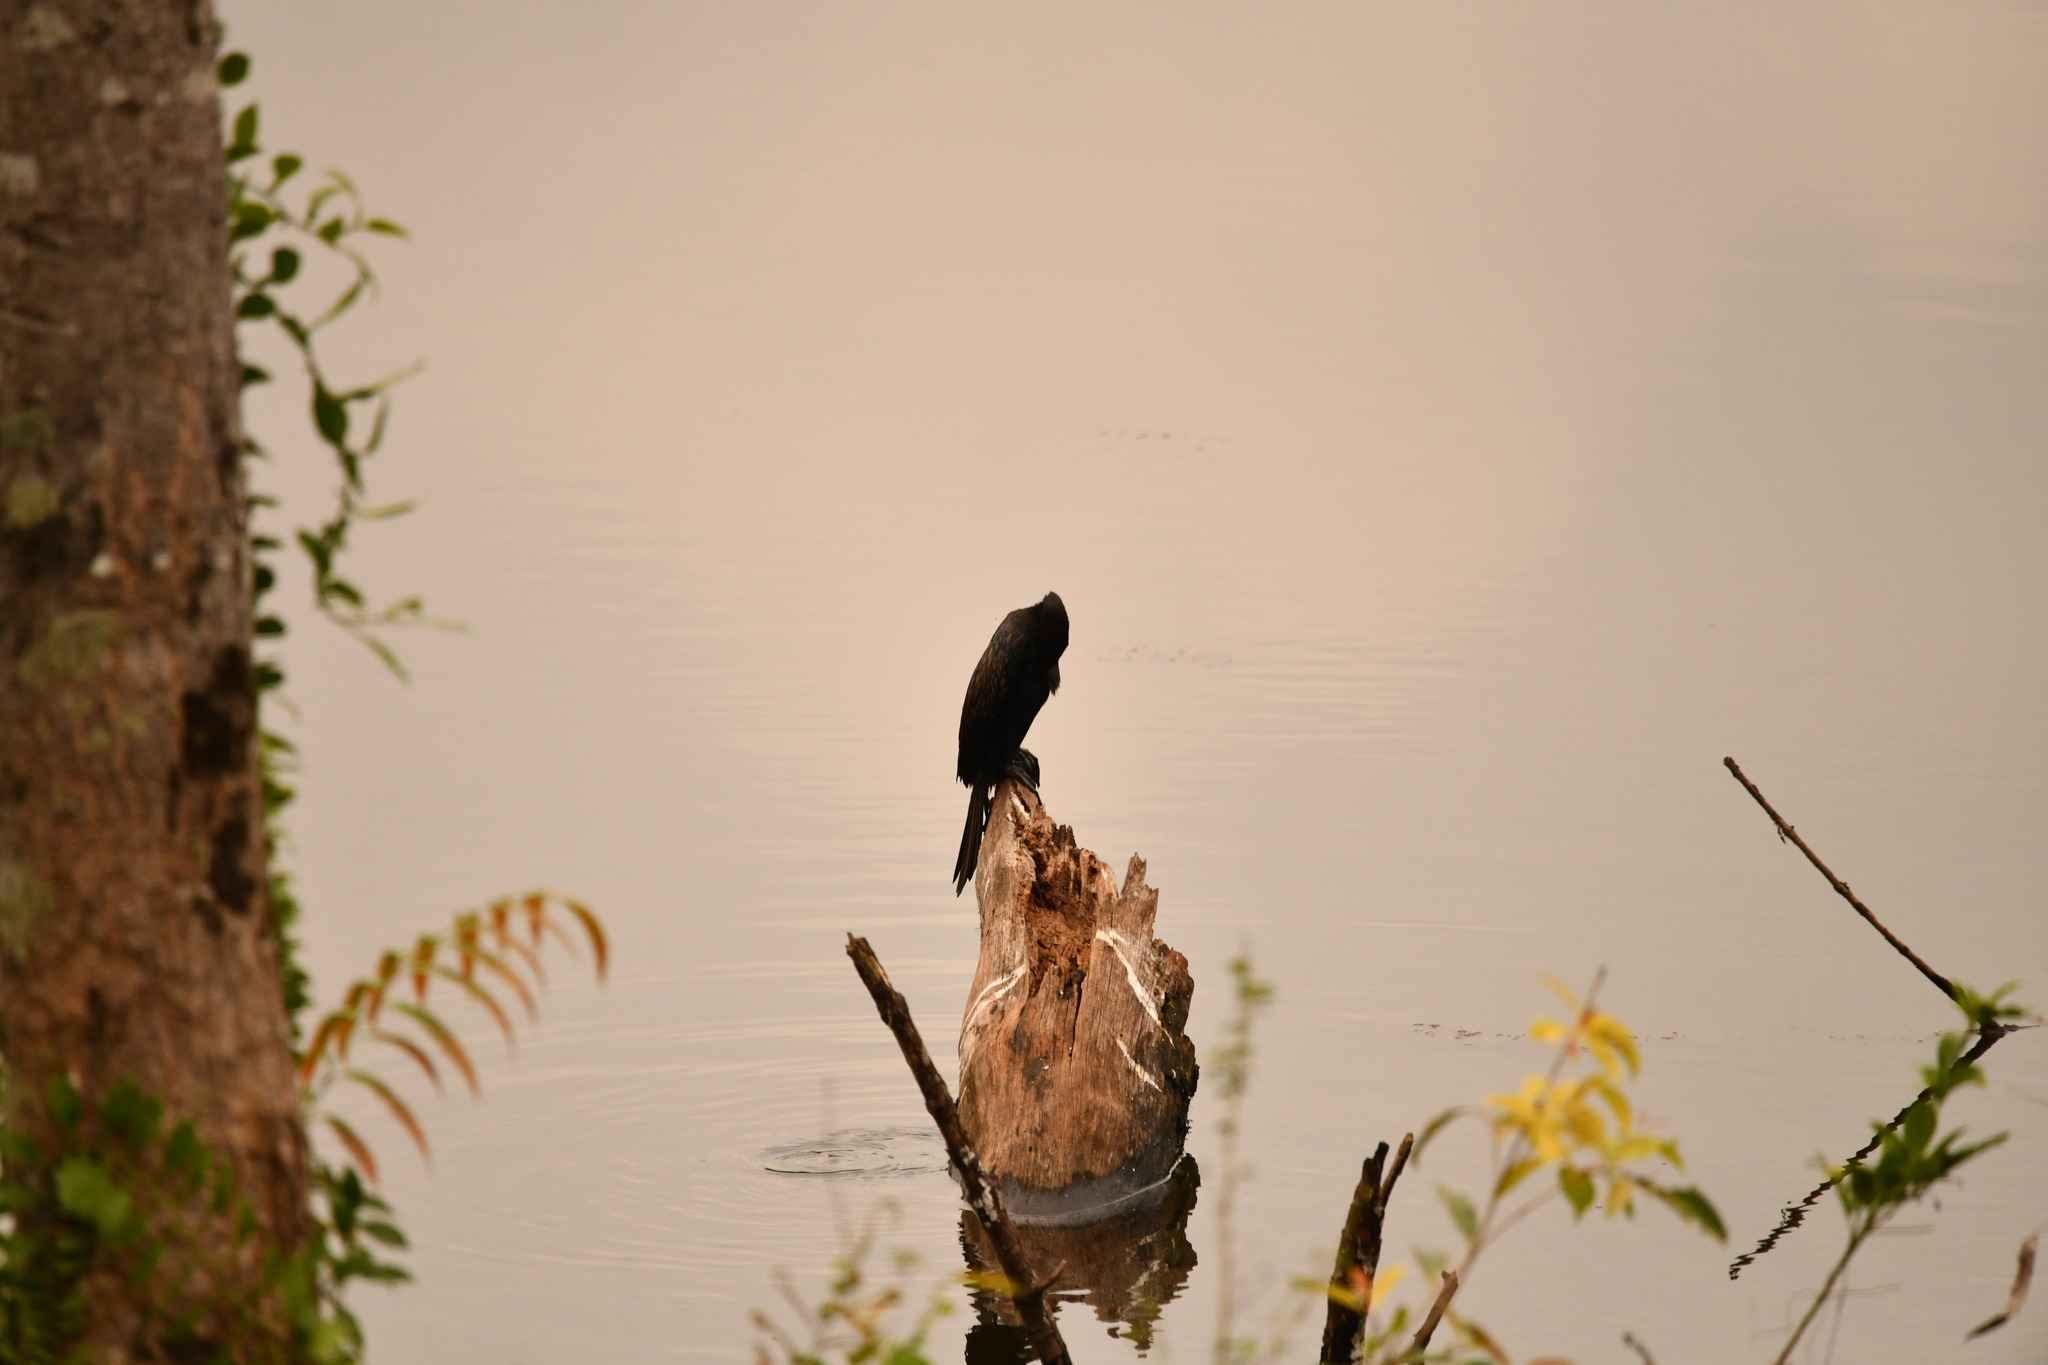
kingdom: Animalia
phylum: Chordata
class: Aves
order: Suliformes
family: Phalacrocoracidae
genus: Microcarbo
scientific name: Microcarbo niger
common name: Little cormorant
